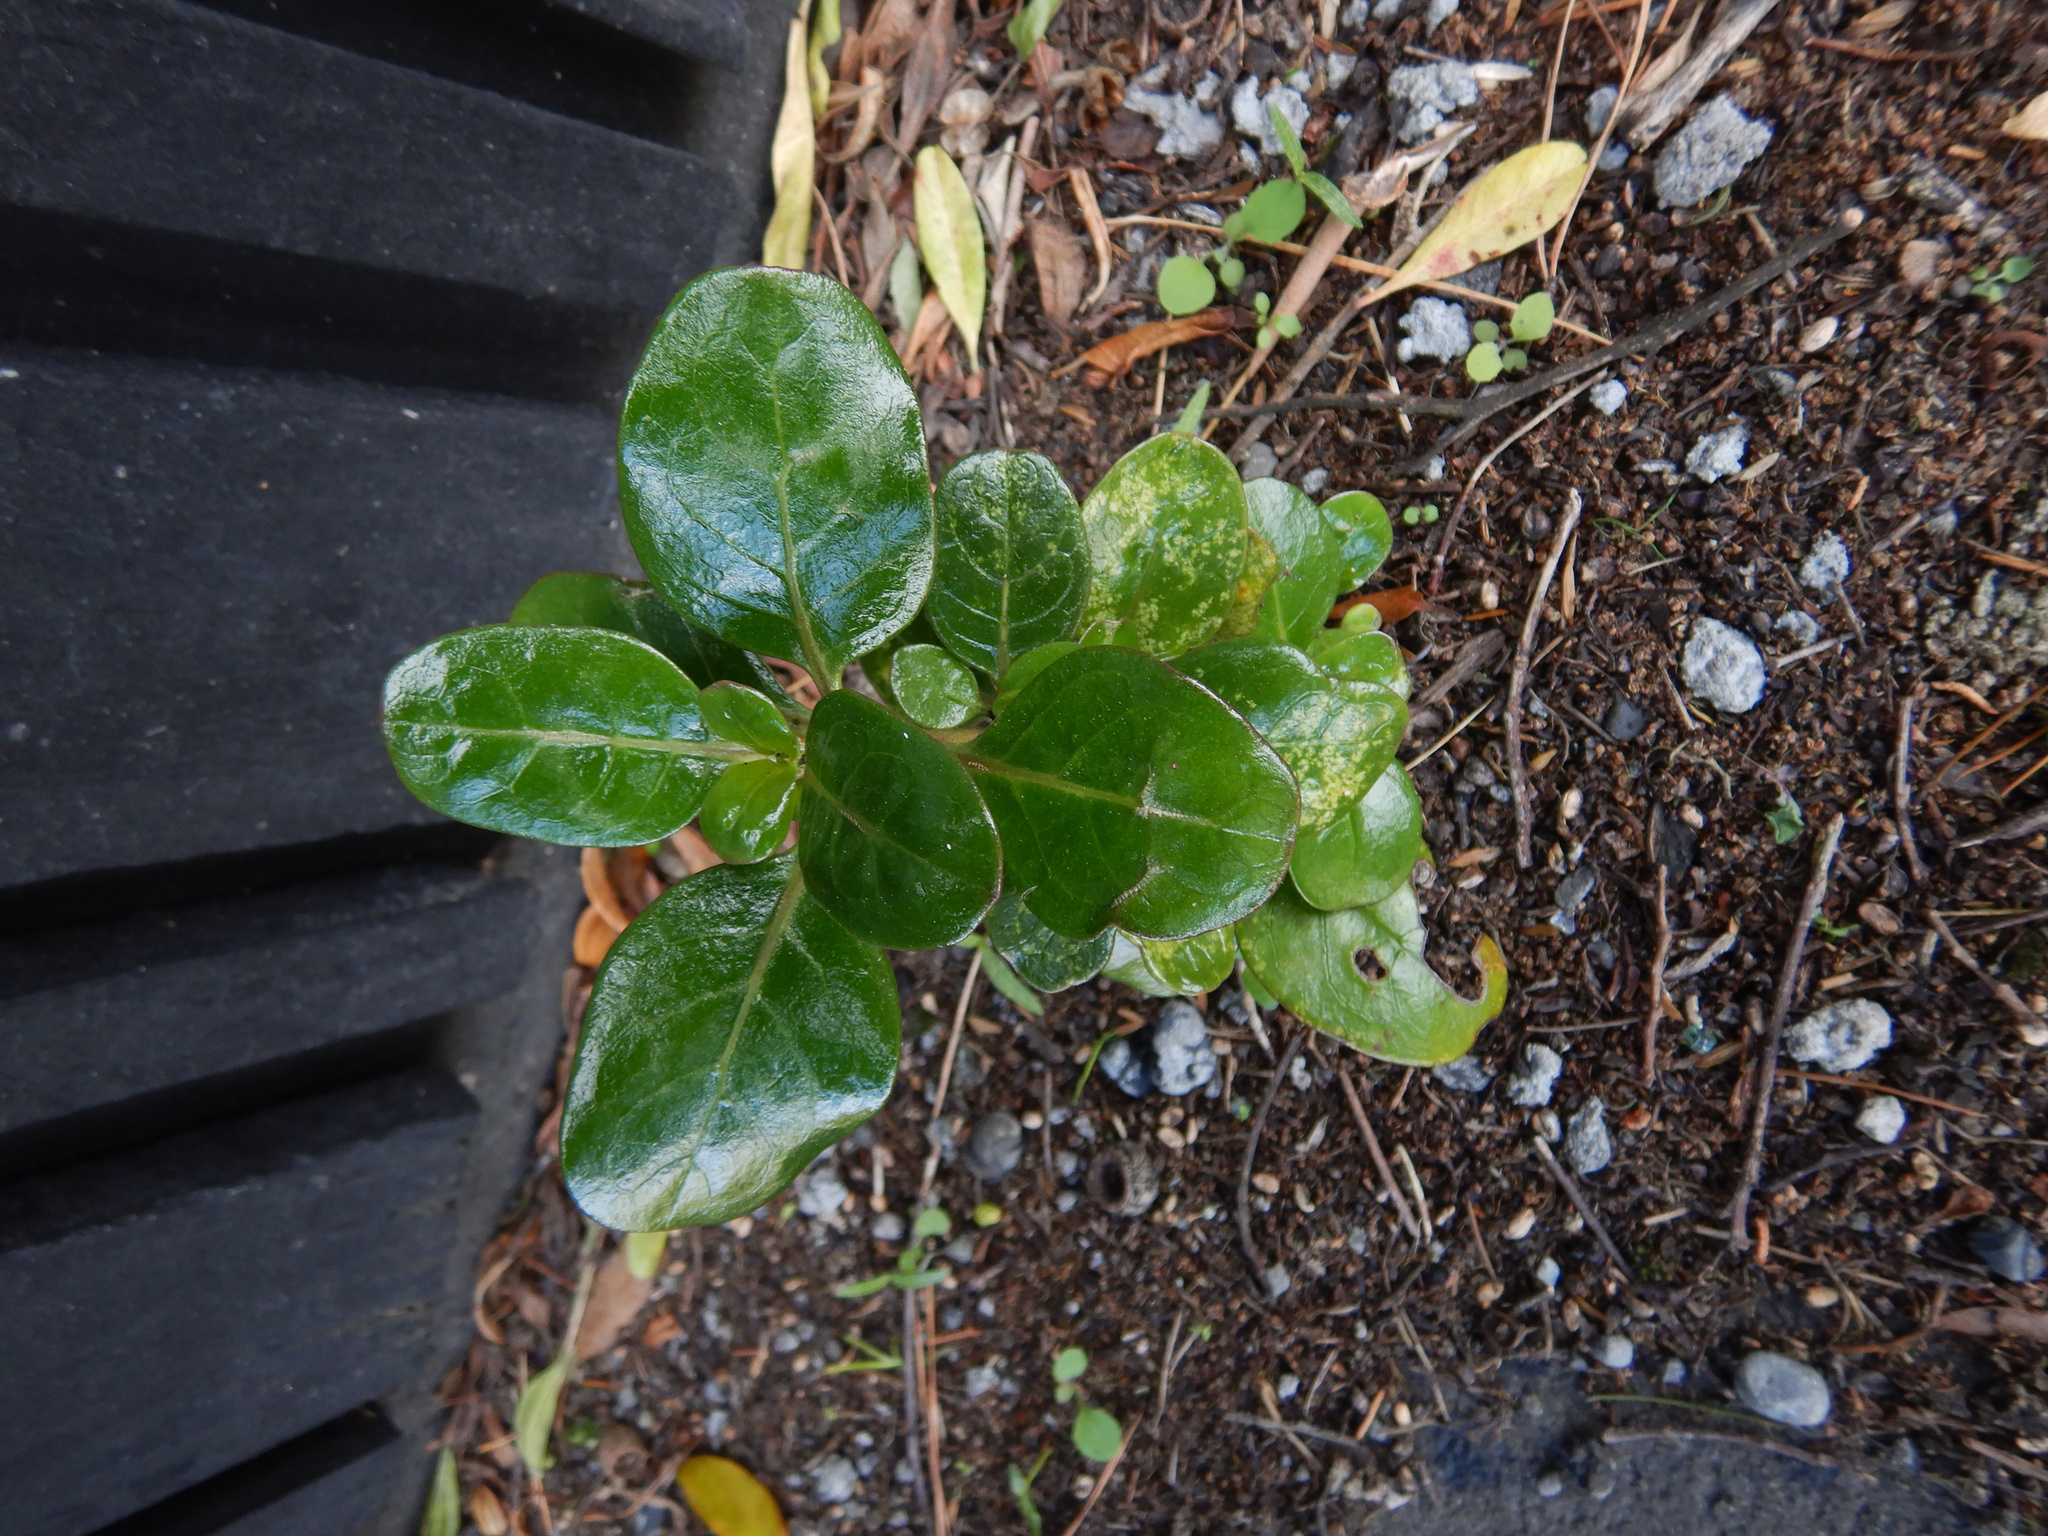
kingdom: Plantae
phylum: Tracheophyta
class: Magnoliopsida
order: Gentianales
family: Rubiaceae
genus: Coprosma
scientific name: Coprosma repens
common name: Tree bedstraw
